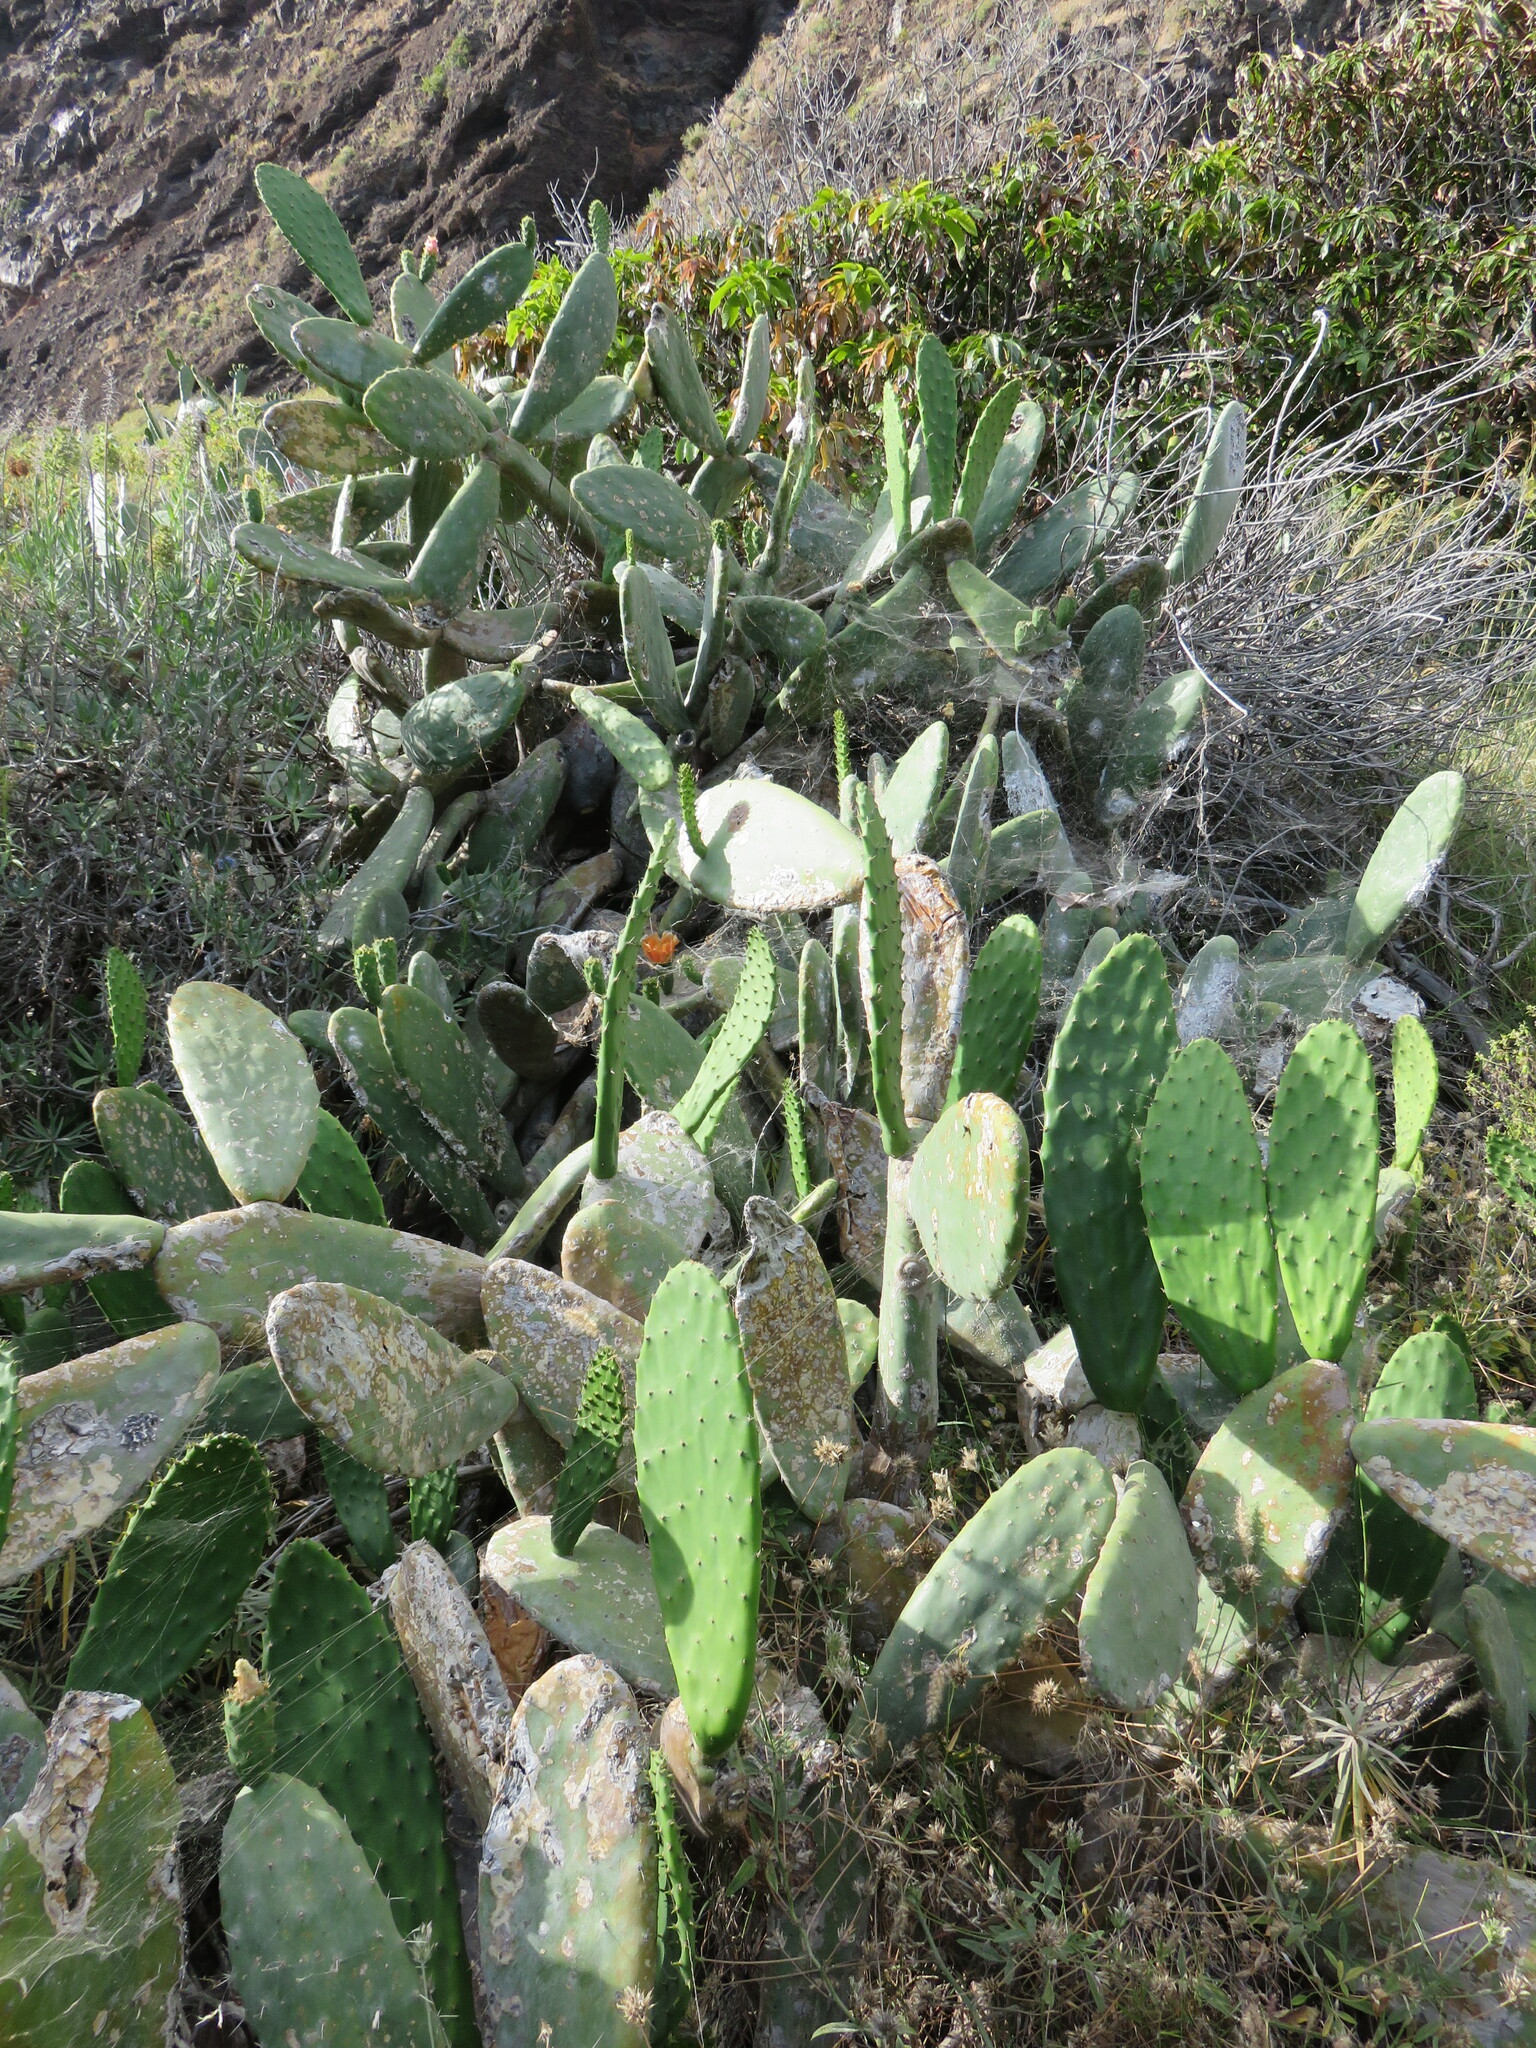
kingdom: Plantae
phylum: Tracheophyta
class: Magnoliopsida
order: Caryophyllales
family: Cactaceae
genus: Opuntia
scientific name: Opuntia ficus-indica
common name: Barbary fig
